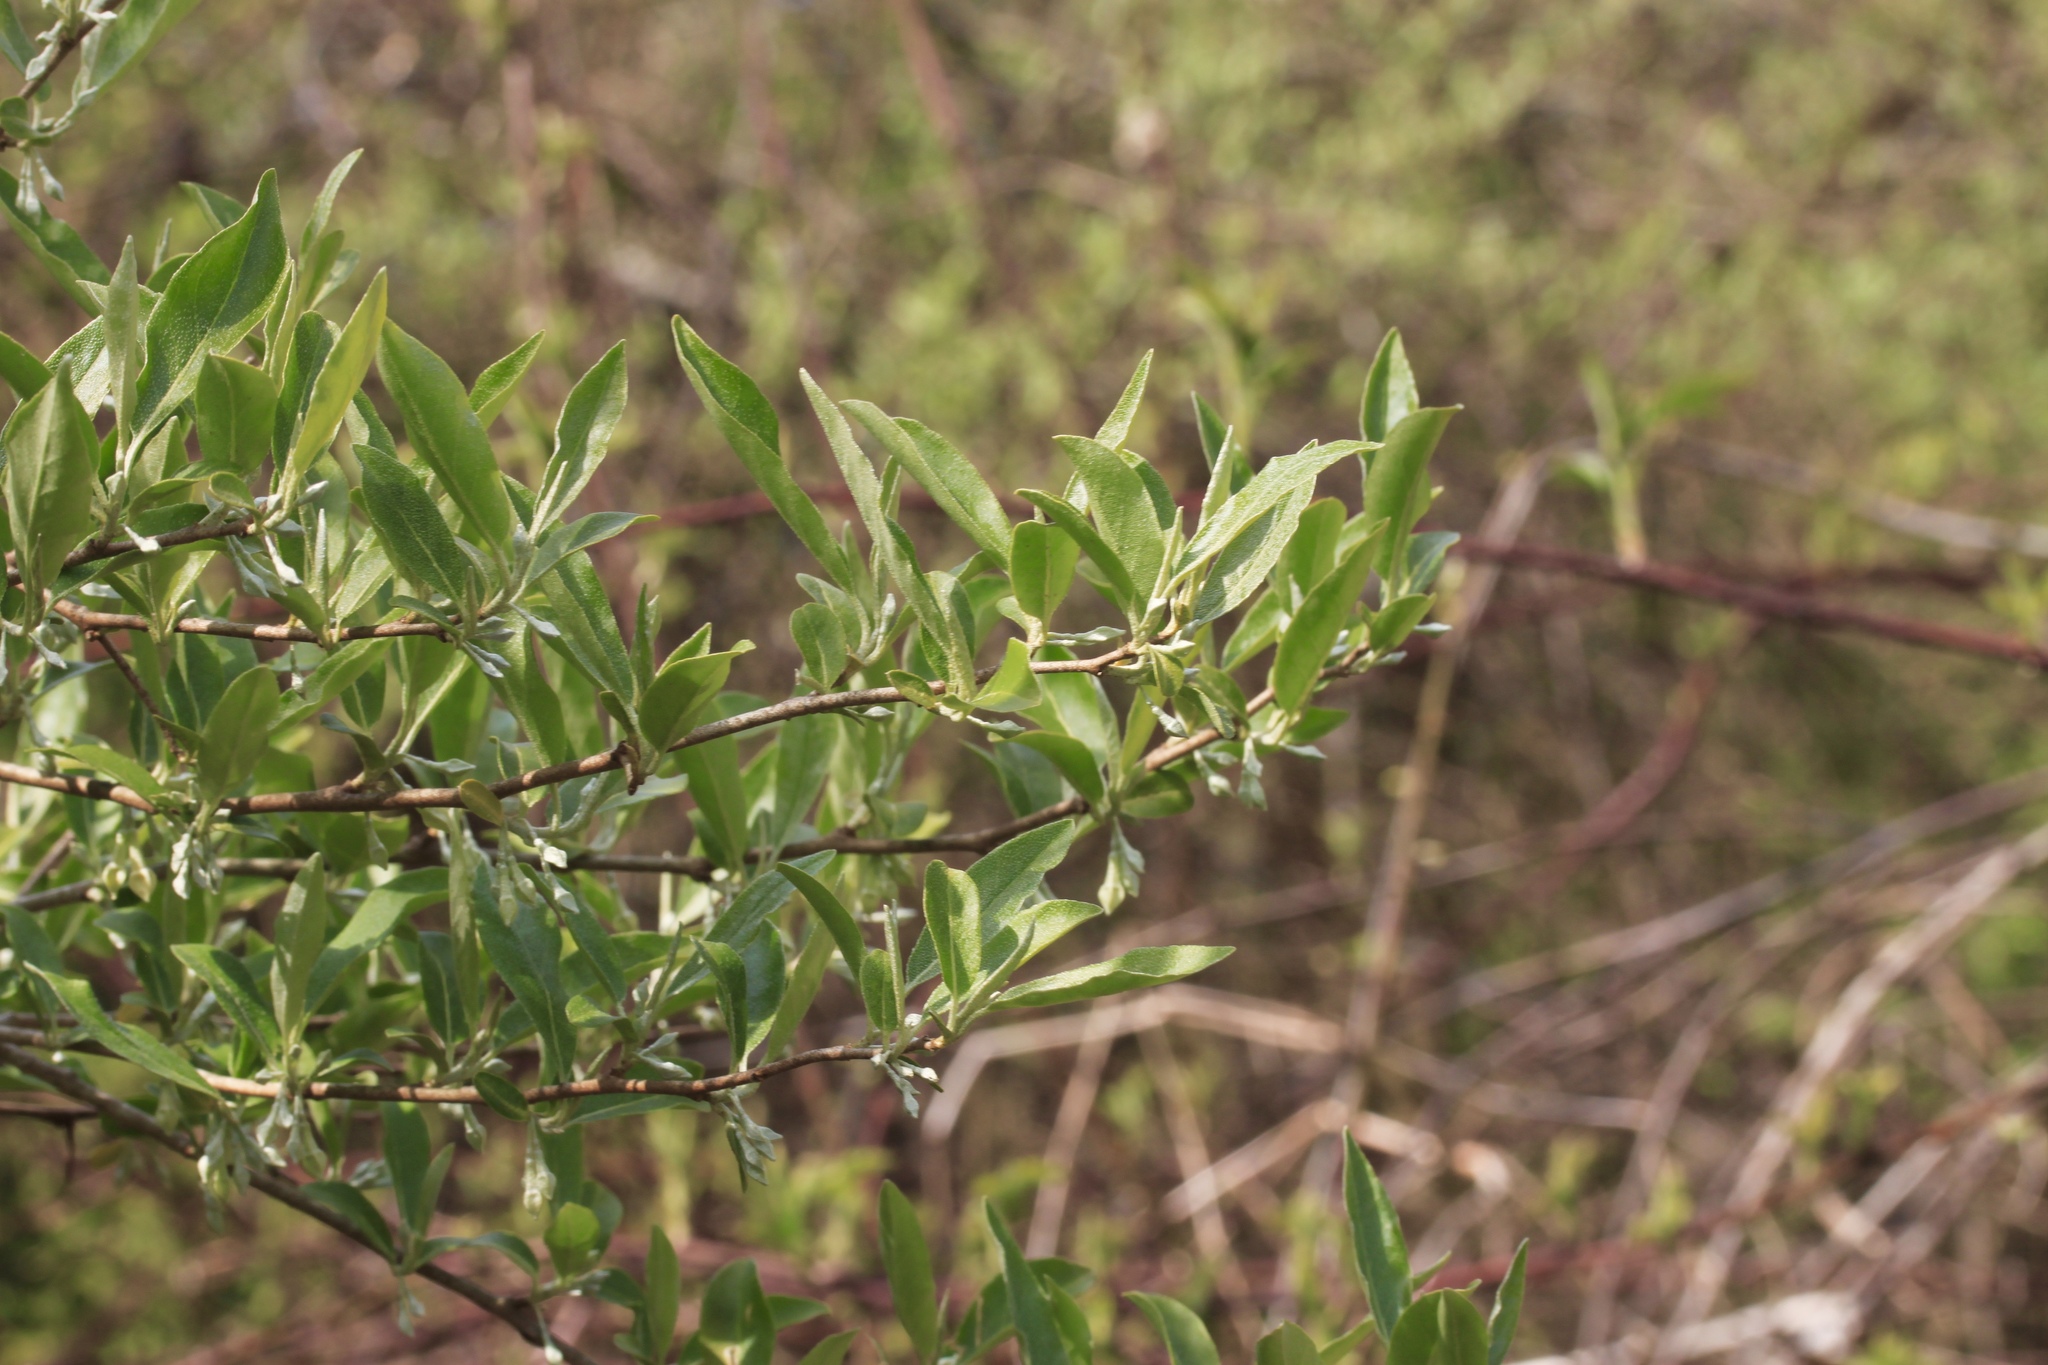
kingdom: Plantae
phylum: Tracheophyta
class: Magnoliopsida
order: Rosales
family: Elaeagnaceae
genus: Elaeagnus
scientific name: Elaeagnus umbellata
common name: Autumn olive
